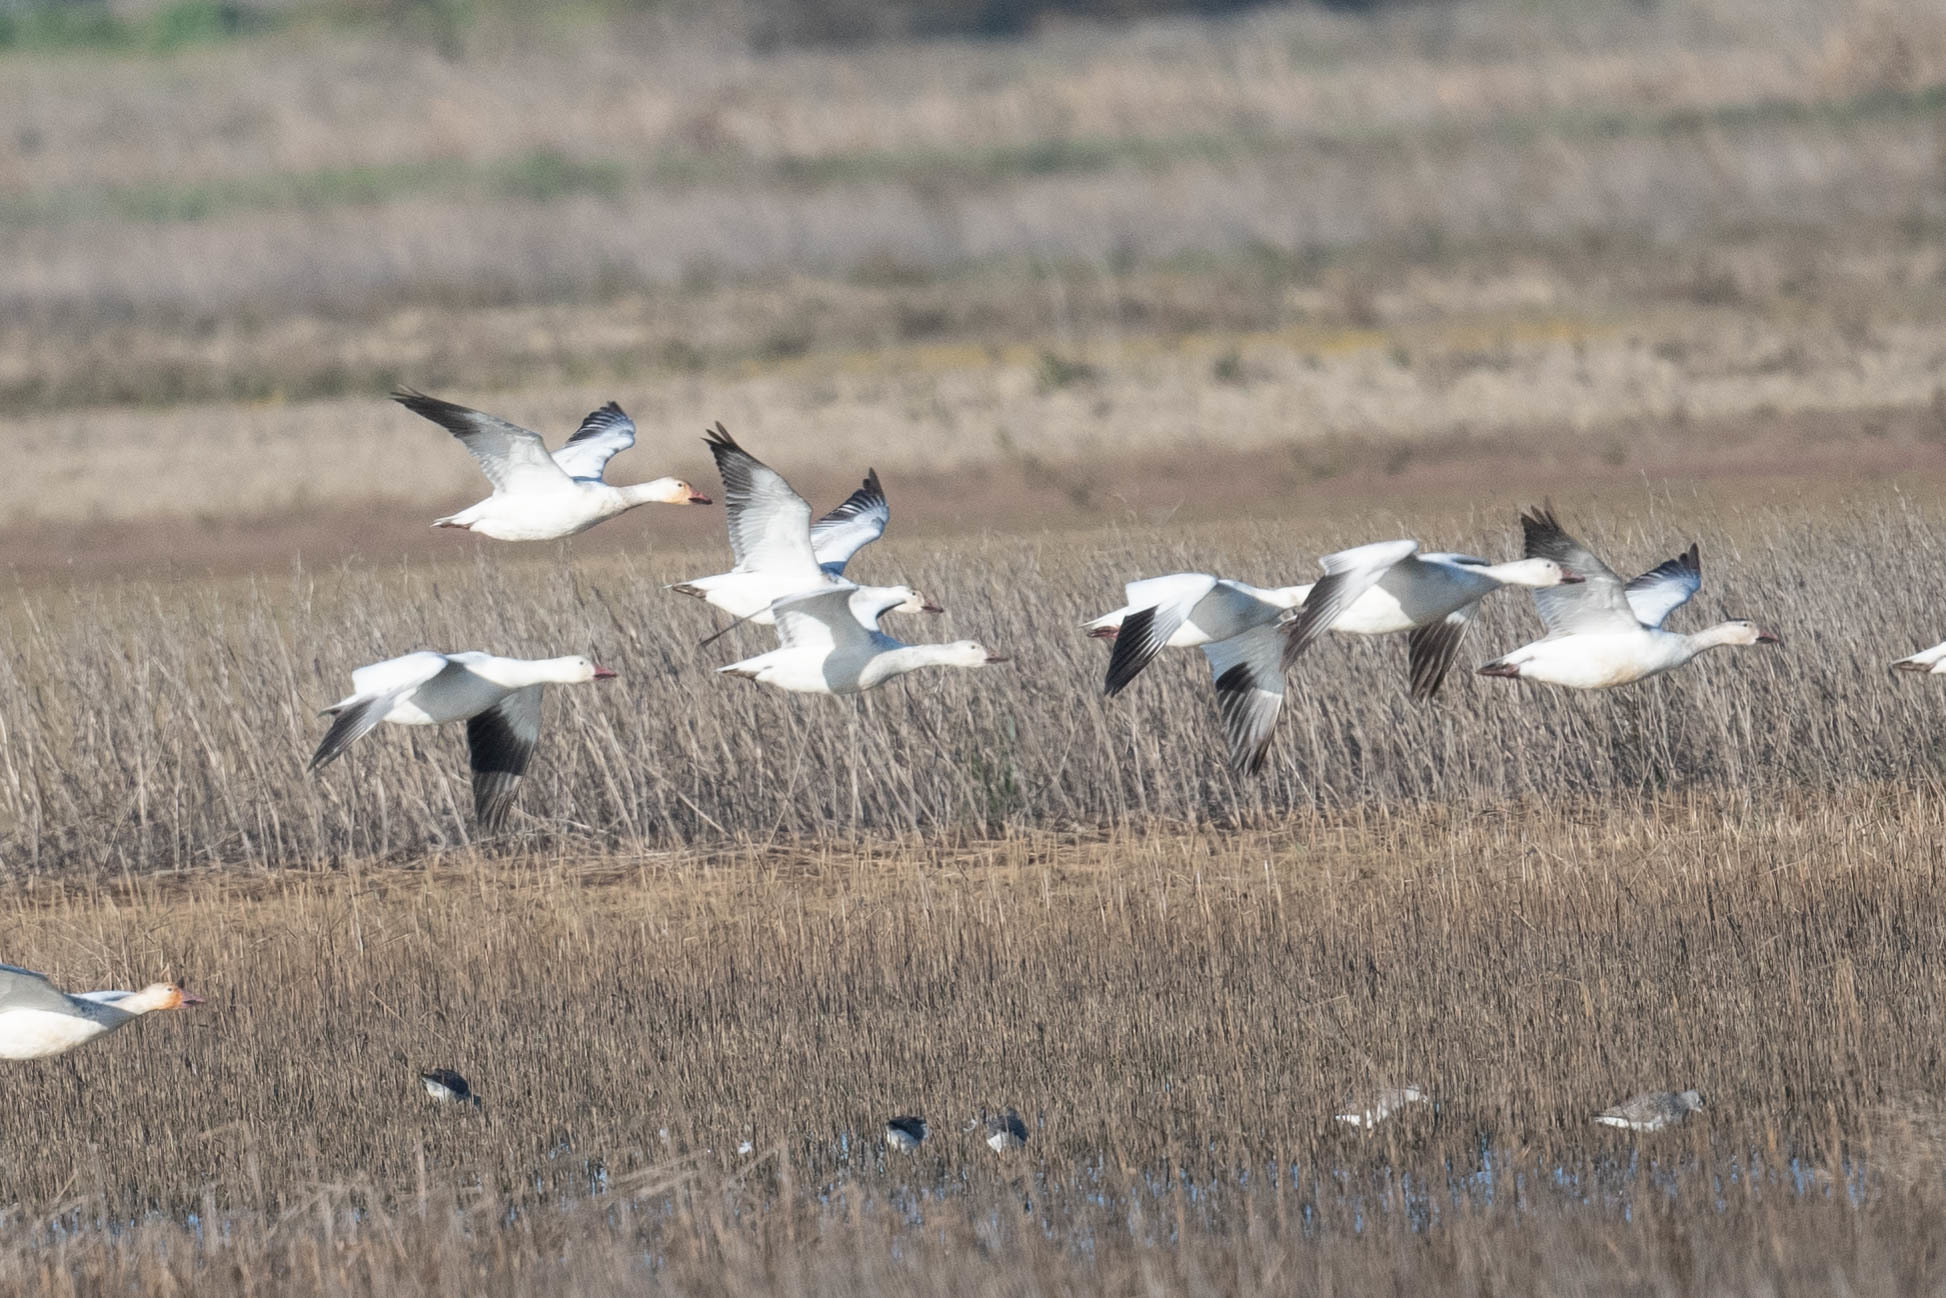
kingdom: Animalia
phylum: Chordata
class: Aves
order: Anseriformes
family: Anatidae
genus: Anser
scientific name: Anser caerulescens
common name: Snow goose
